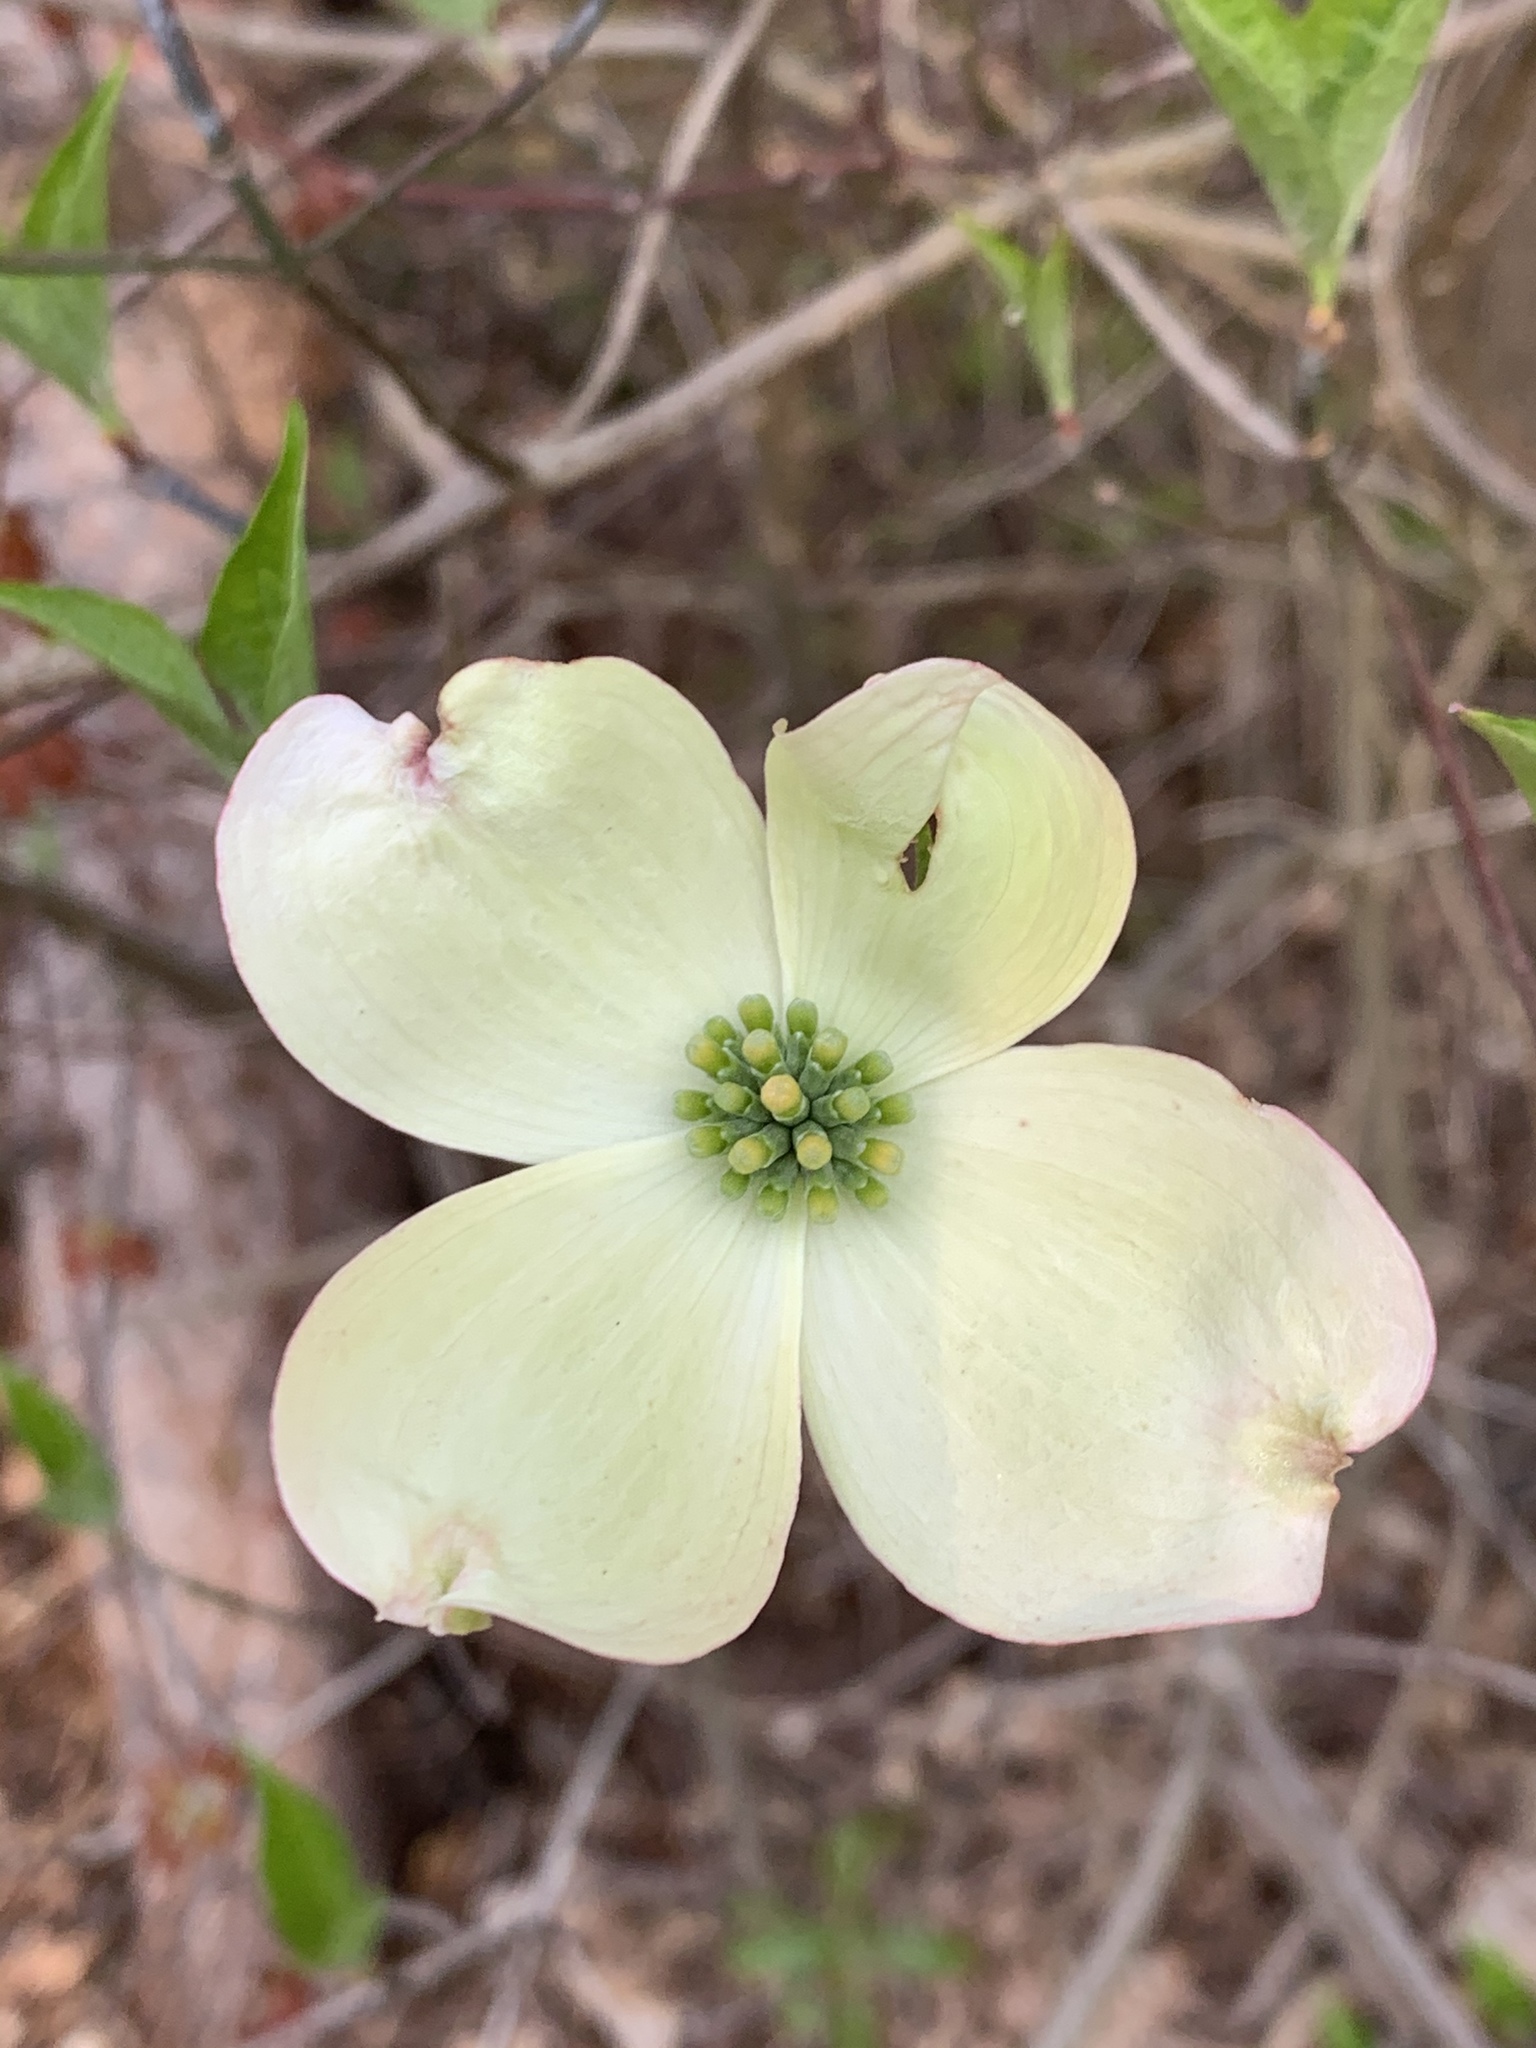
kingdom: Plantae
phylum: Tracheophyta
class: Magnoliopsida
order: Cornales
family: Cornaceae
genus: Cornus
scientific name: Cornus florida
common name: Flowering dogwood
